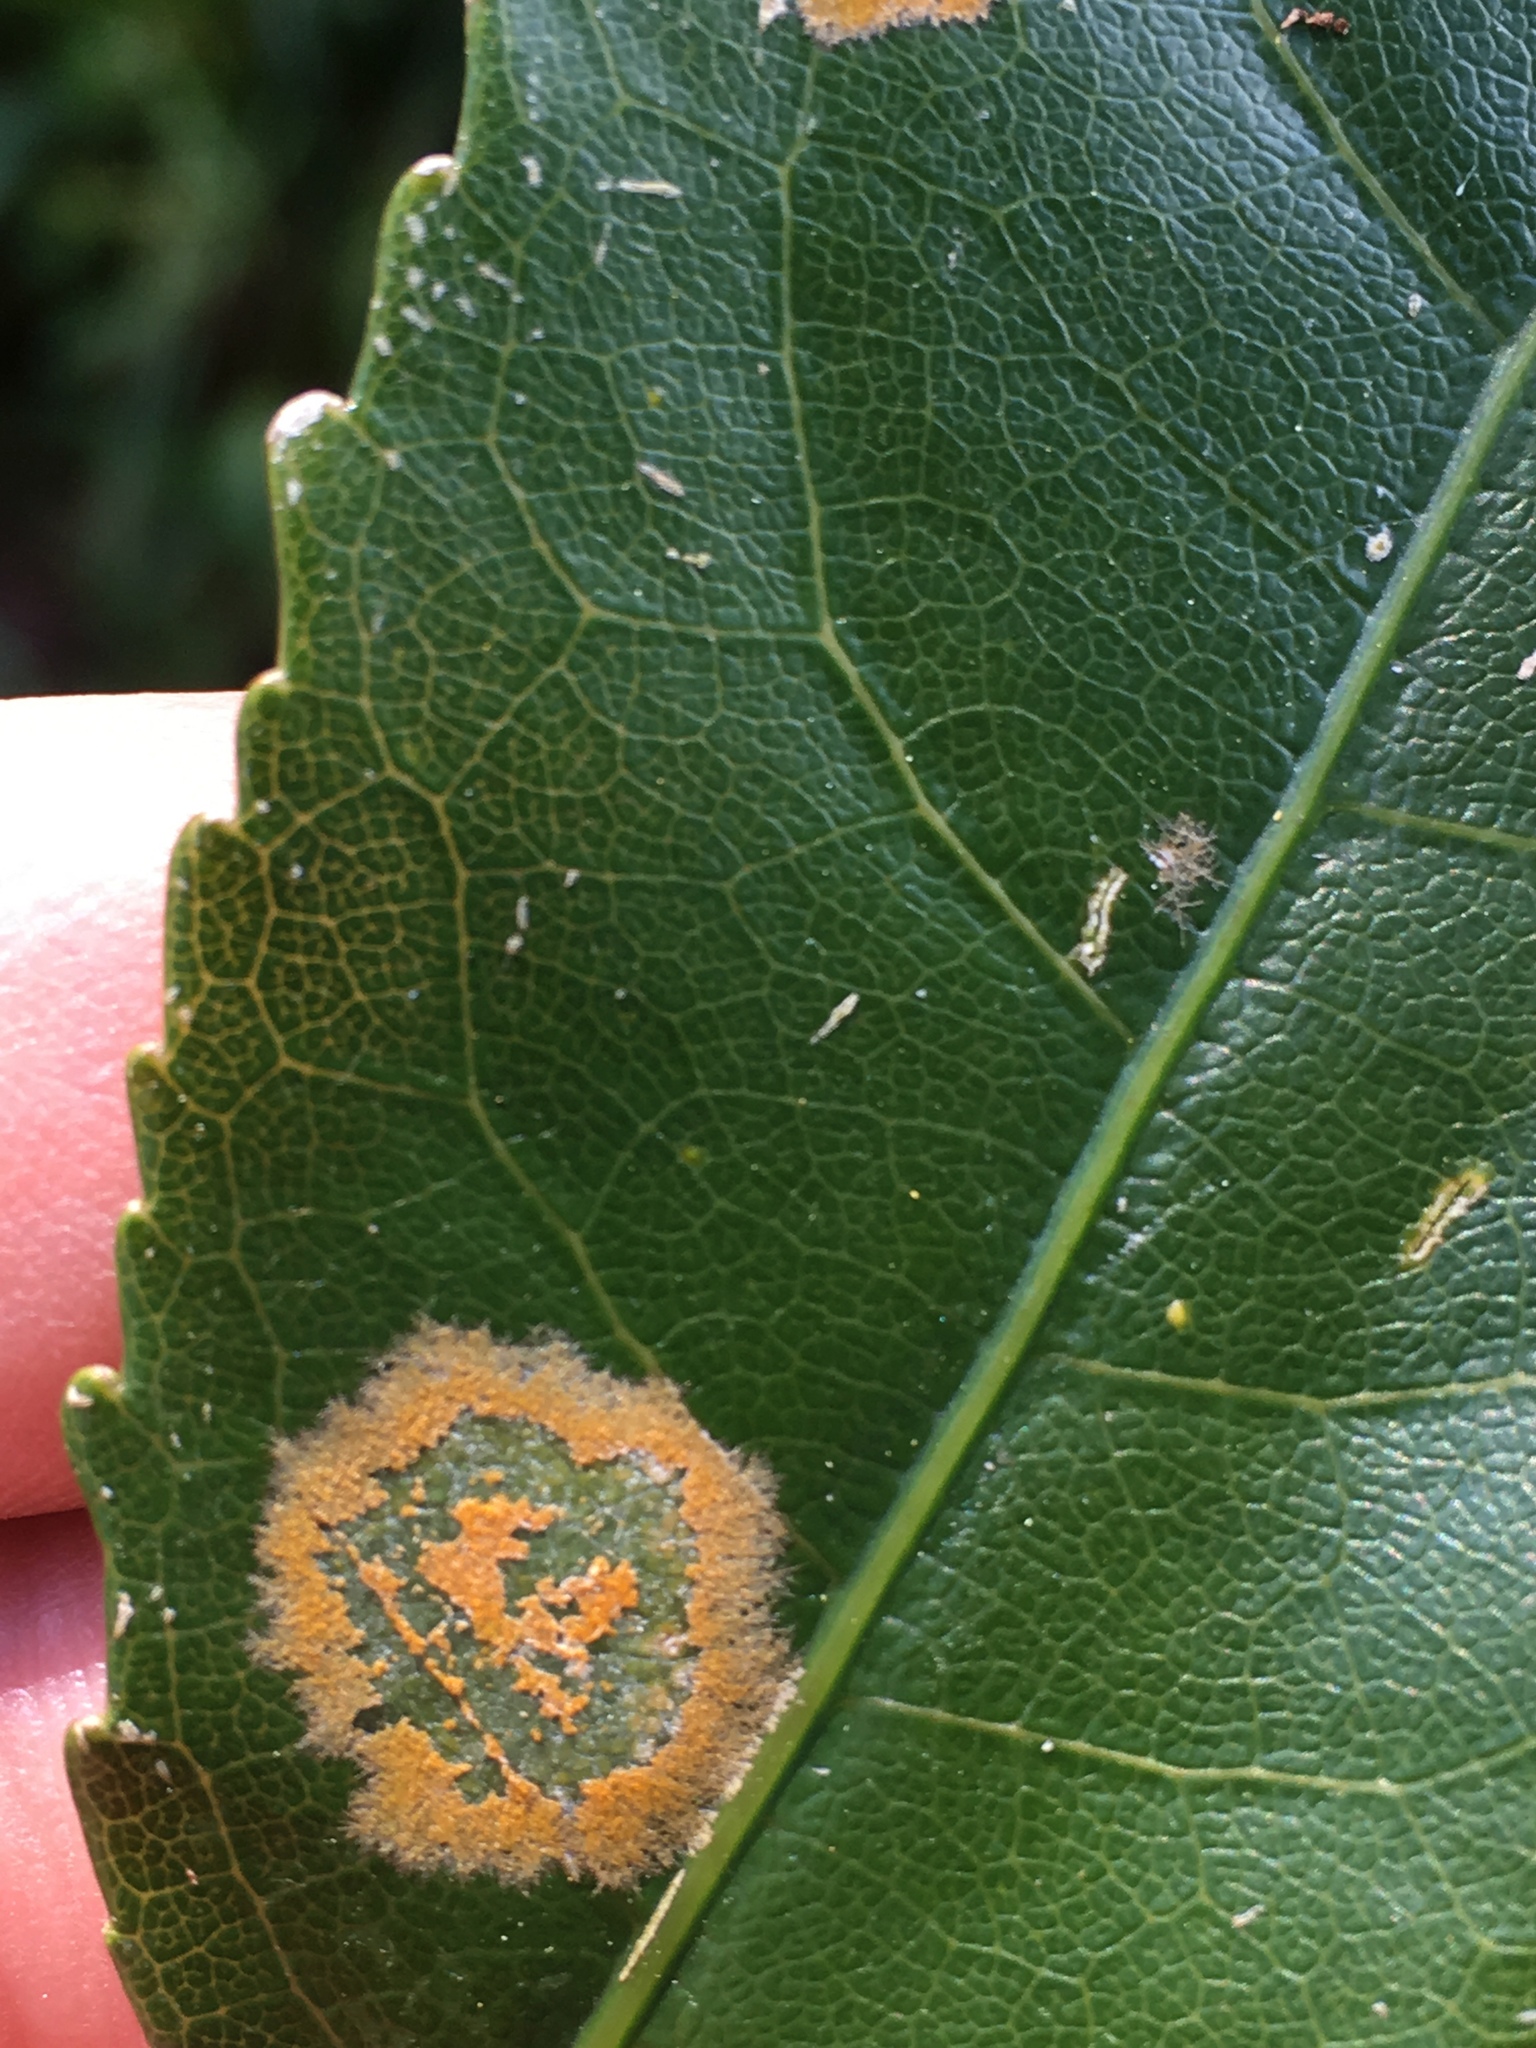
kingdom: Plantae
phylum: Chlorophyta
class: Ulvophyceae
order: Trentepohliales
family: Trentepohliaceae
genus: Cephaleuros
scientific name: Cephaleuros
